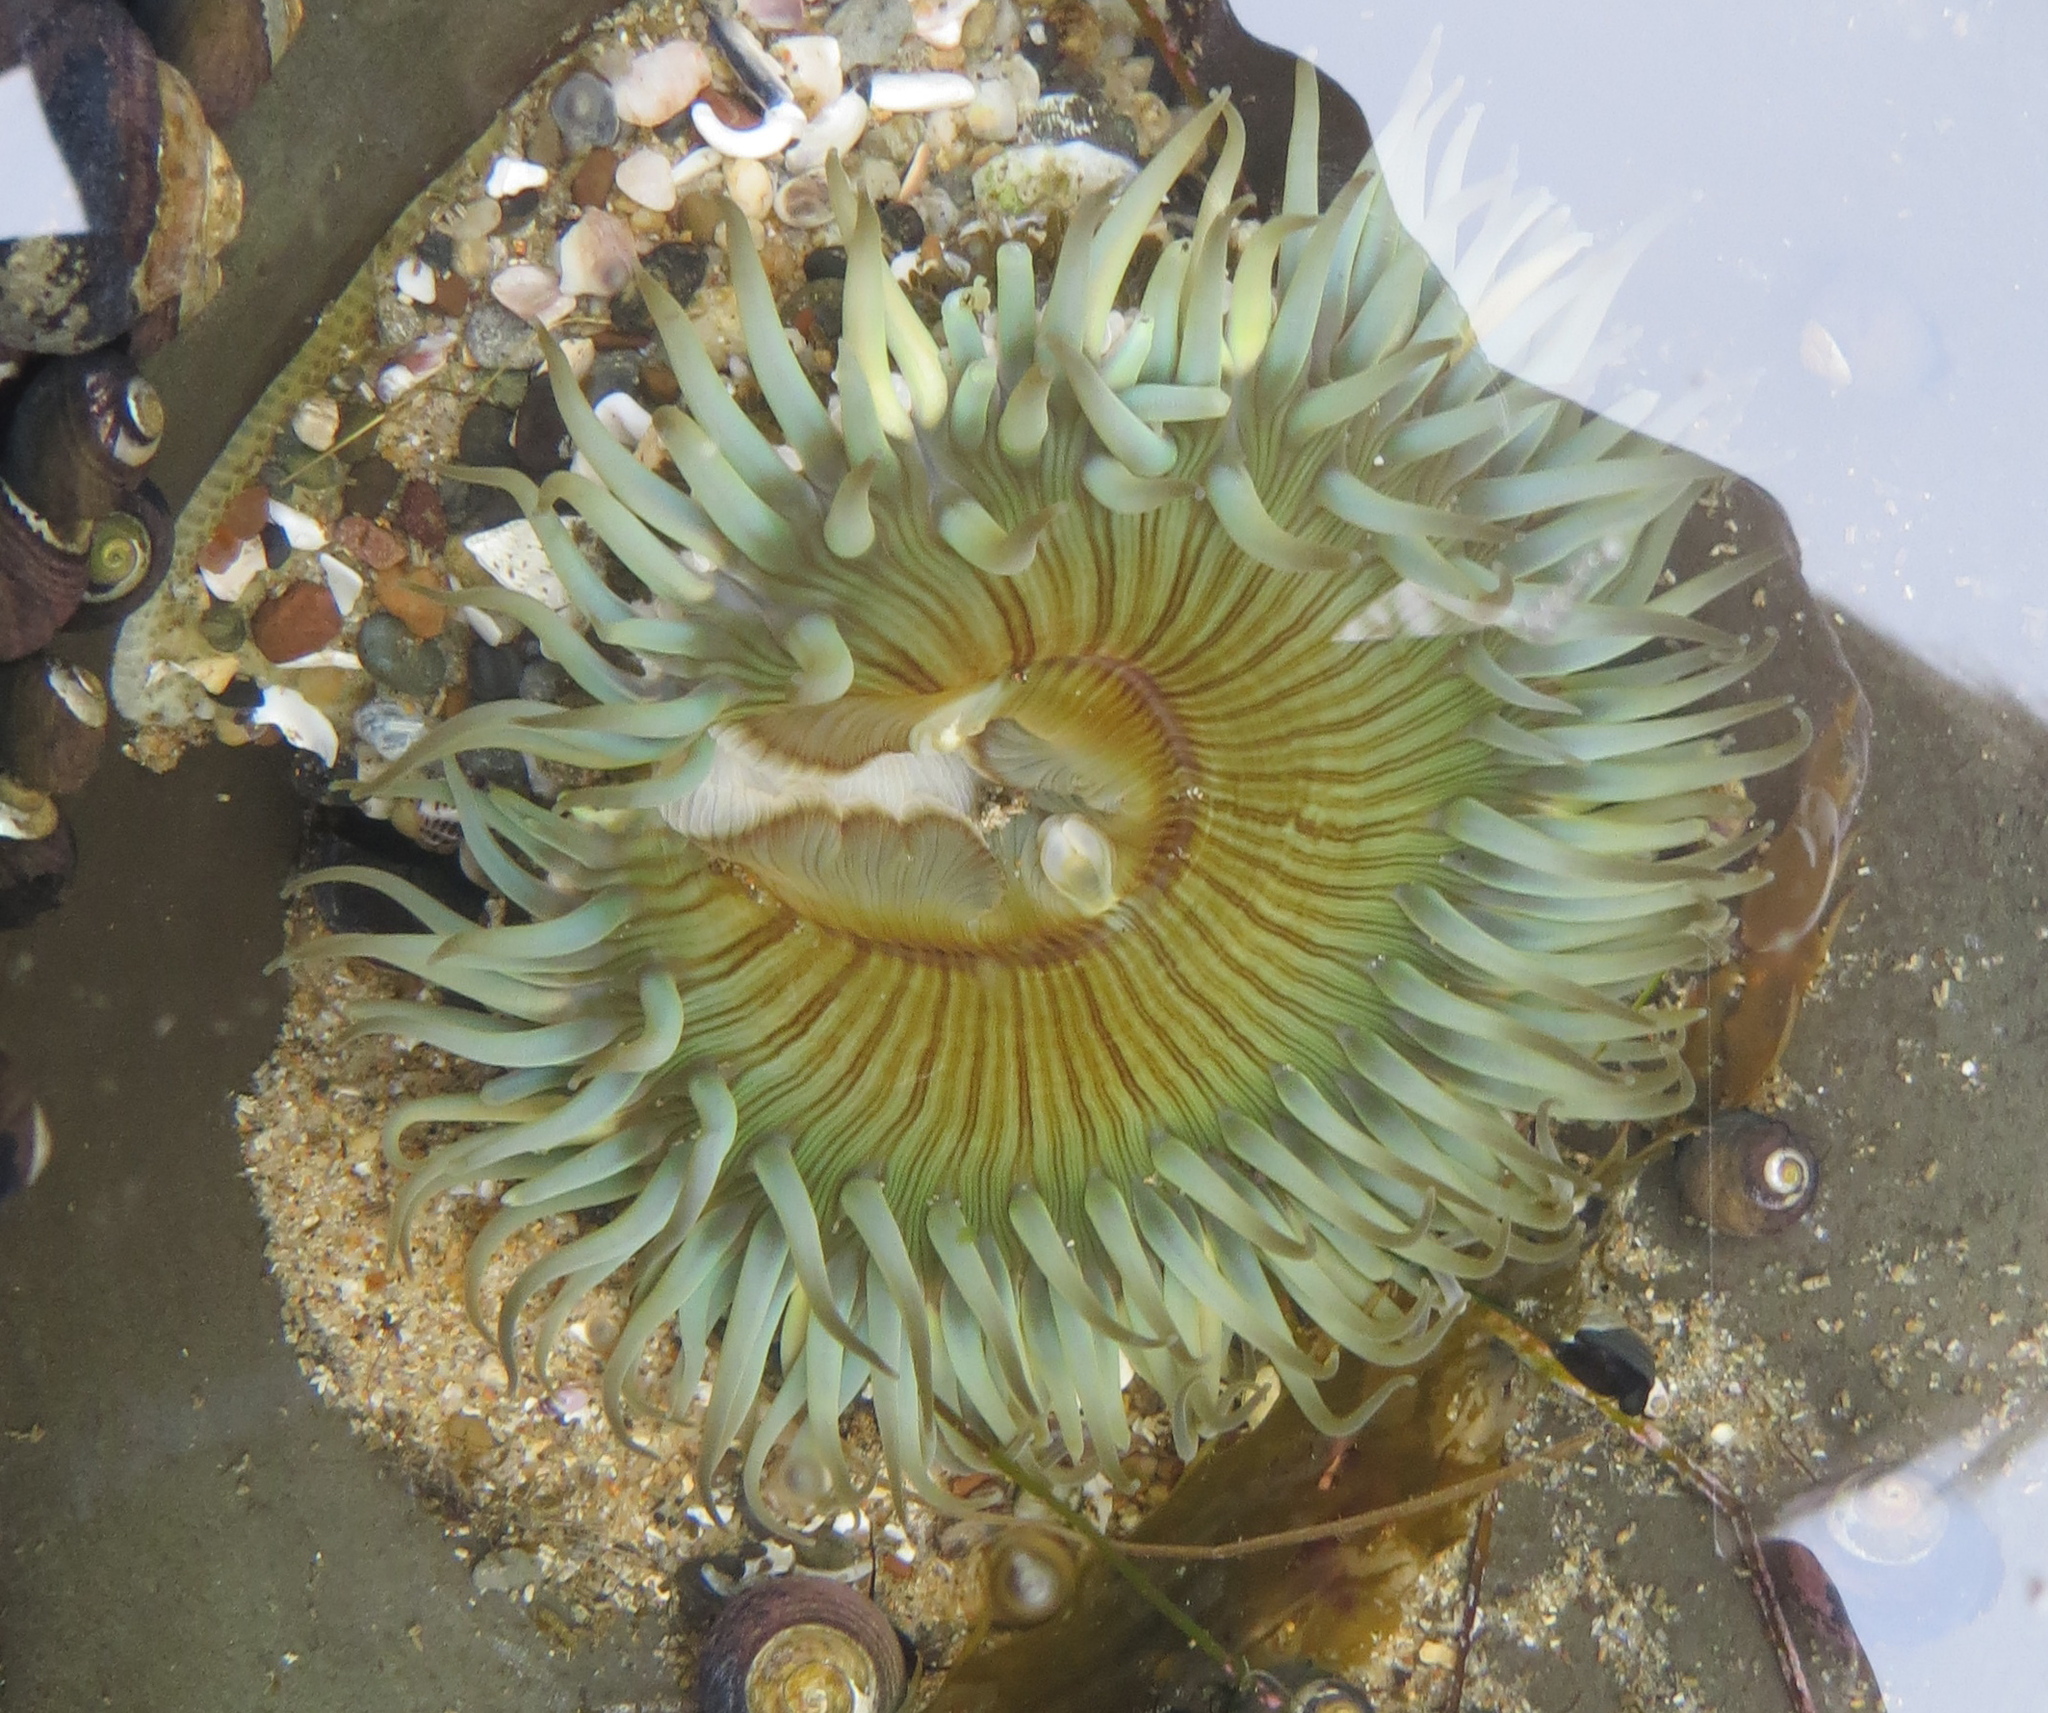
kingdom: Animalia
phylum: Cnidaria
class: Anthozoa
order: Actiniaria
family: Actiniidae
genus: Anthopleura
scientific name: Anthopleura sola
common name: Sun anemone
